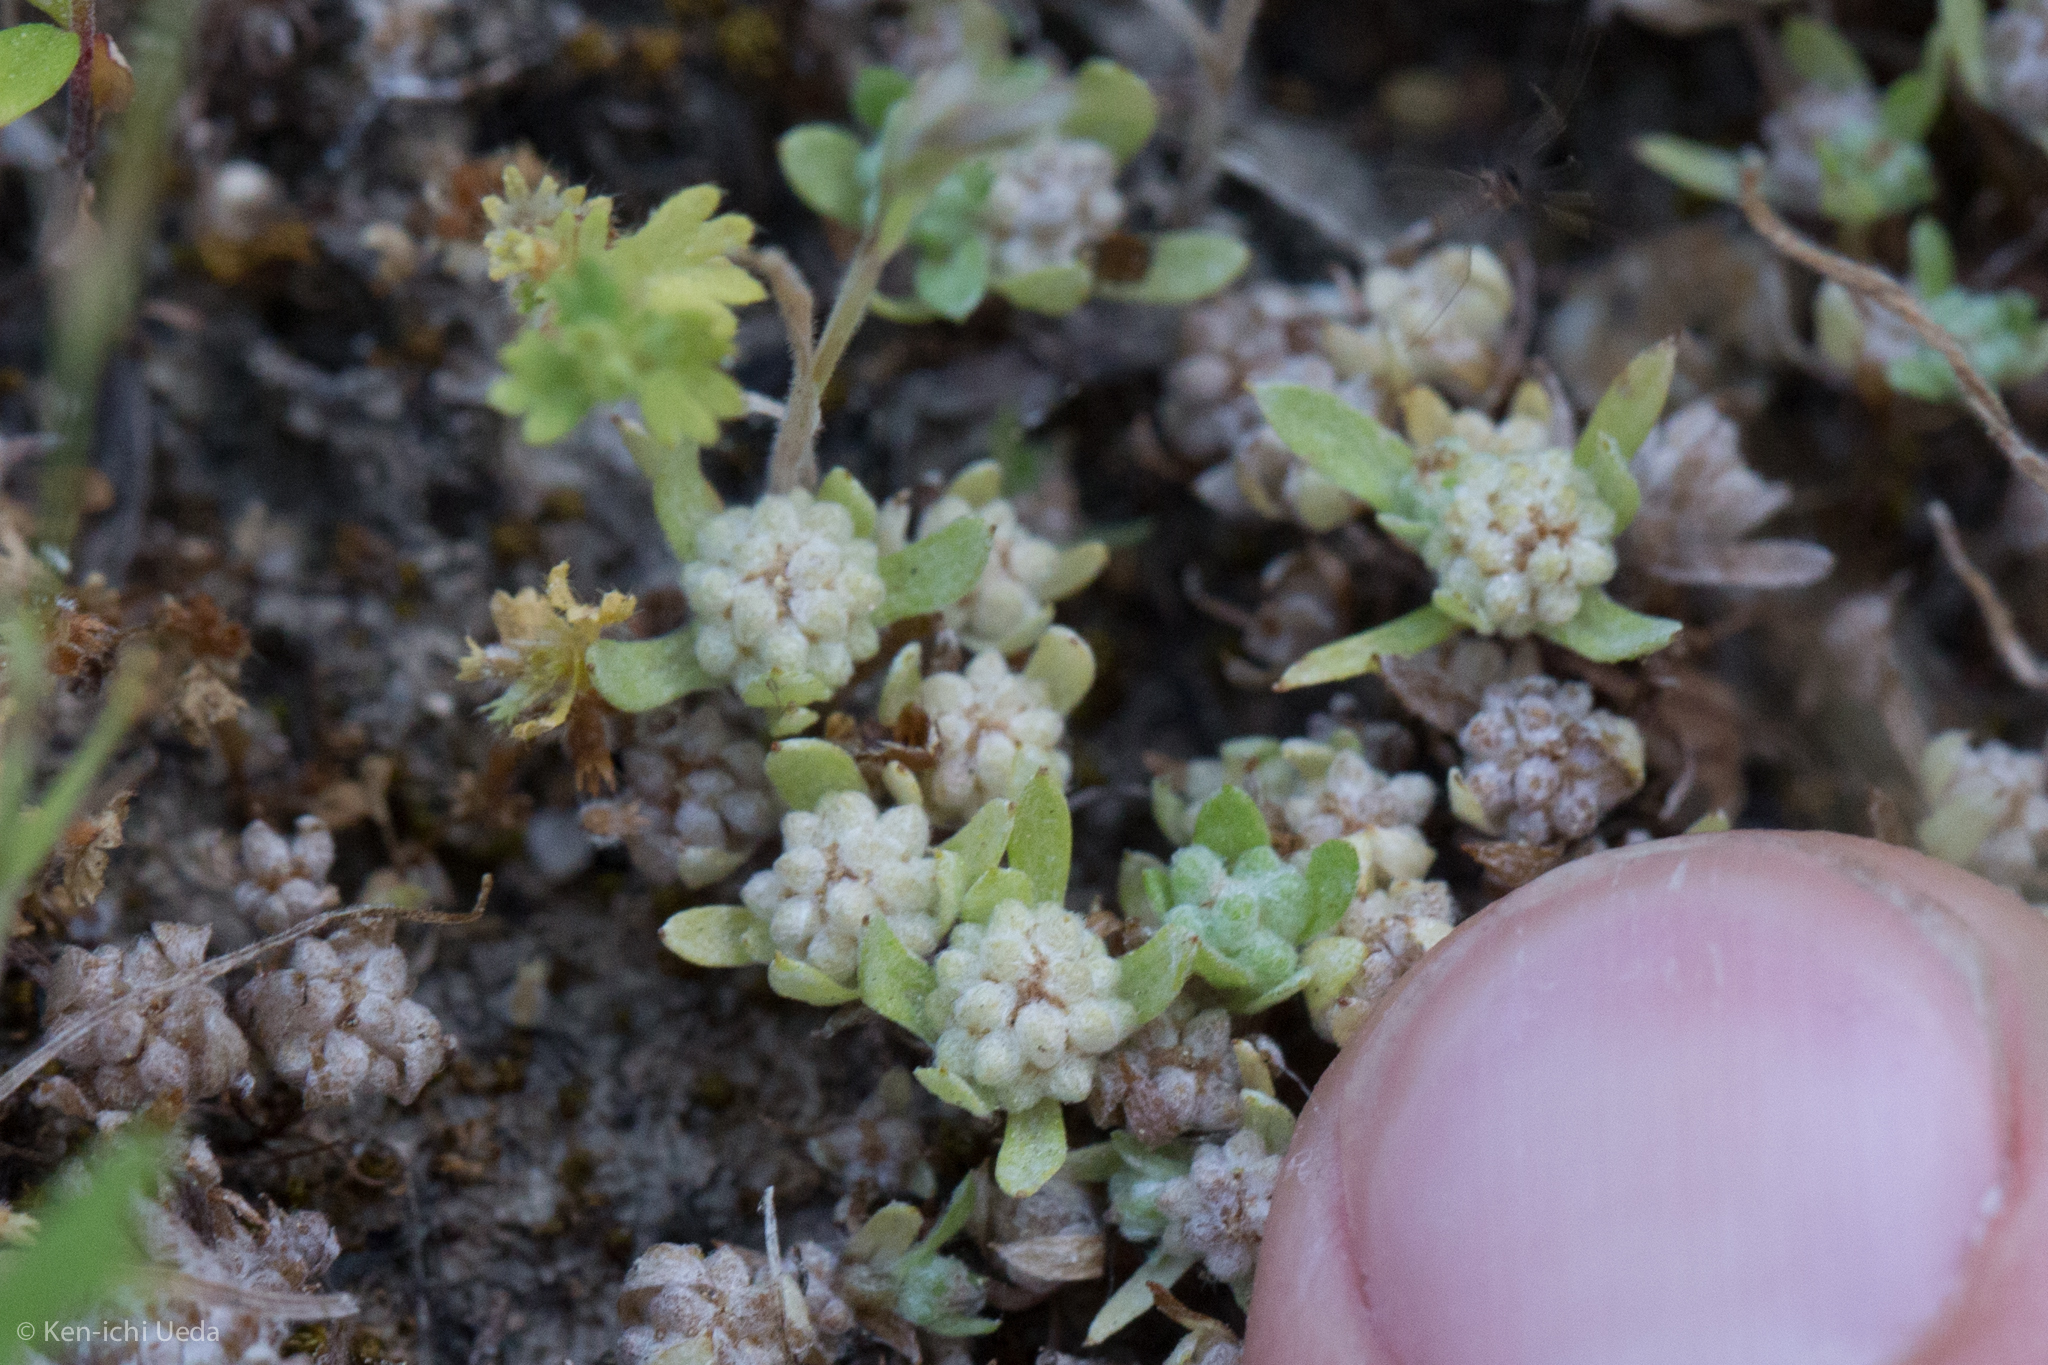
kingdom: Plantae
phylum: Tracheophyta
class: Magnoliopsida
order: Asterales
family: Asteraceae
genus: Psilocarphus
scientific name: Psilocarphus tenellus
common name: Slender woolly-marbles
